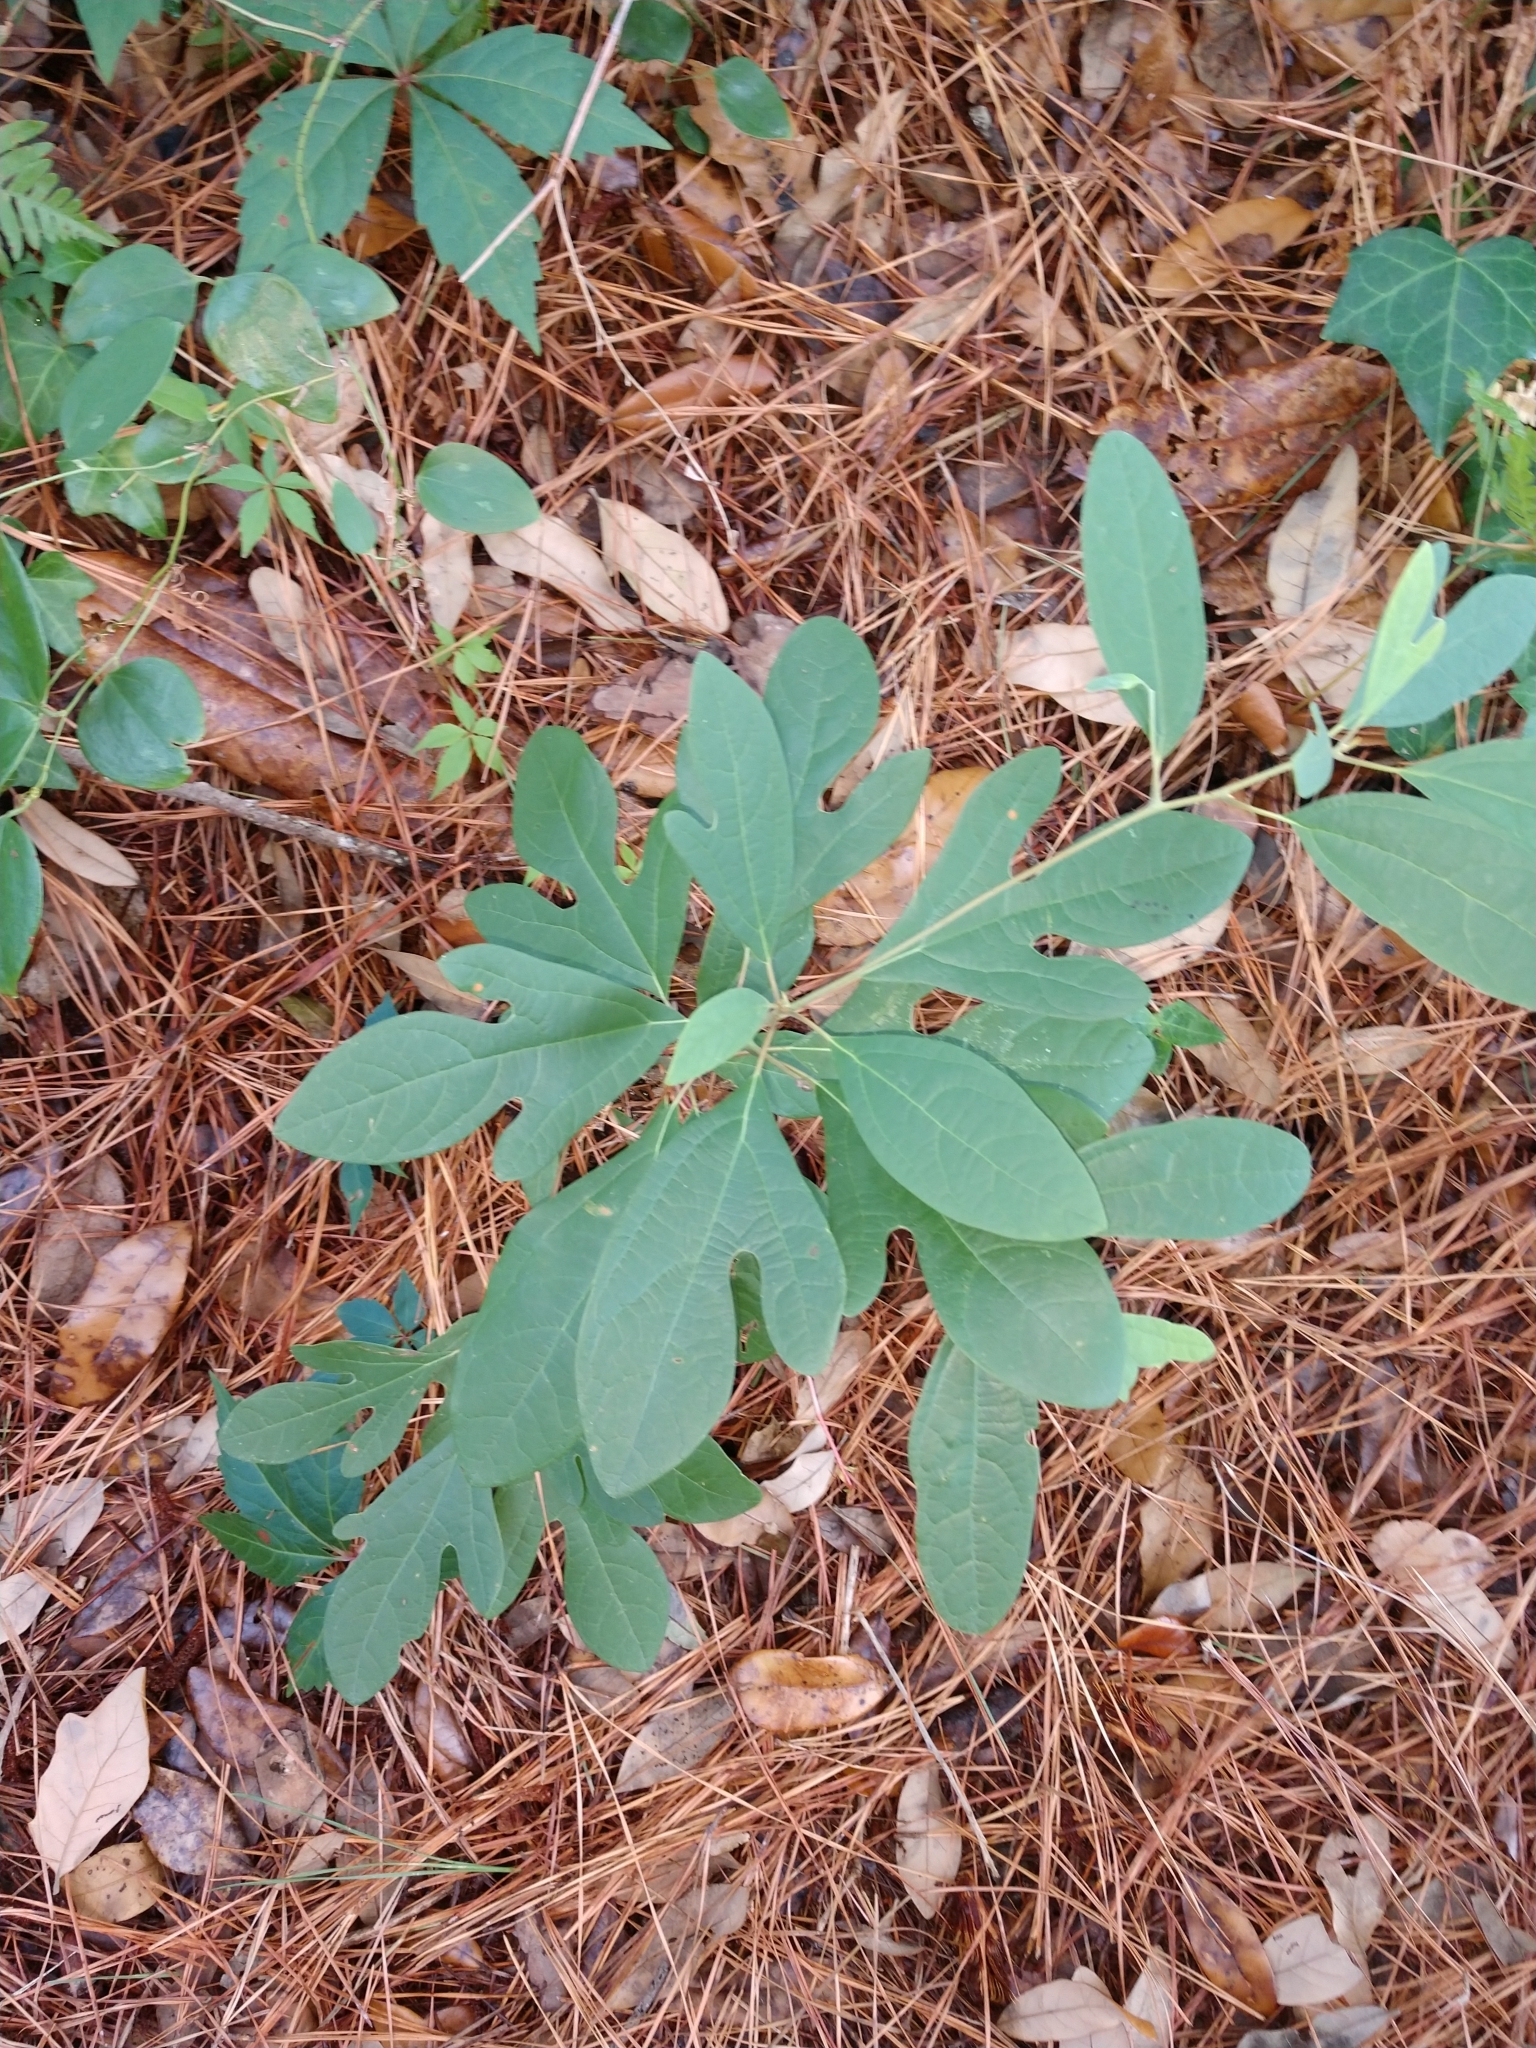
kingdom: Plantae
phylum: Tracheophyta
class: Magnoliopsida
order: Laurales
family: Lauraceae
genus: Sassafras
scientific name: Sassafras albidum
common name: Sassafras
